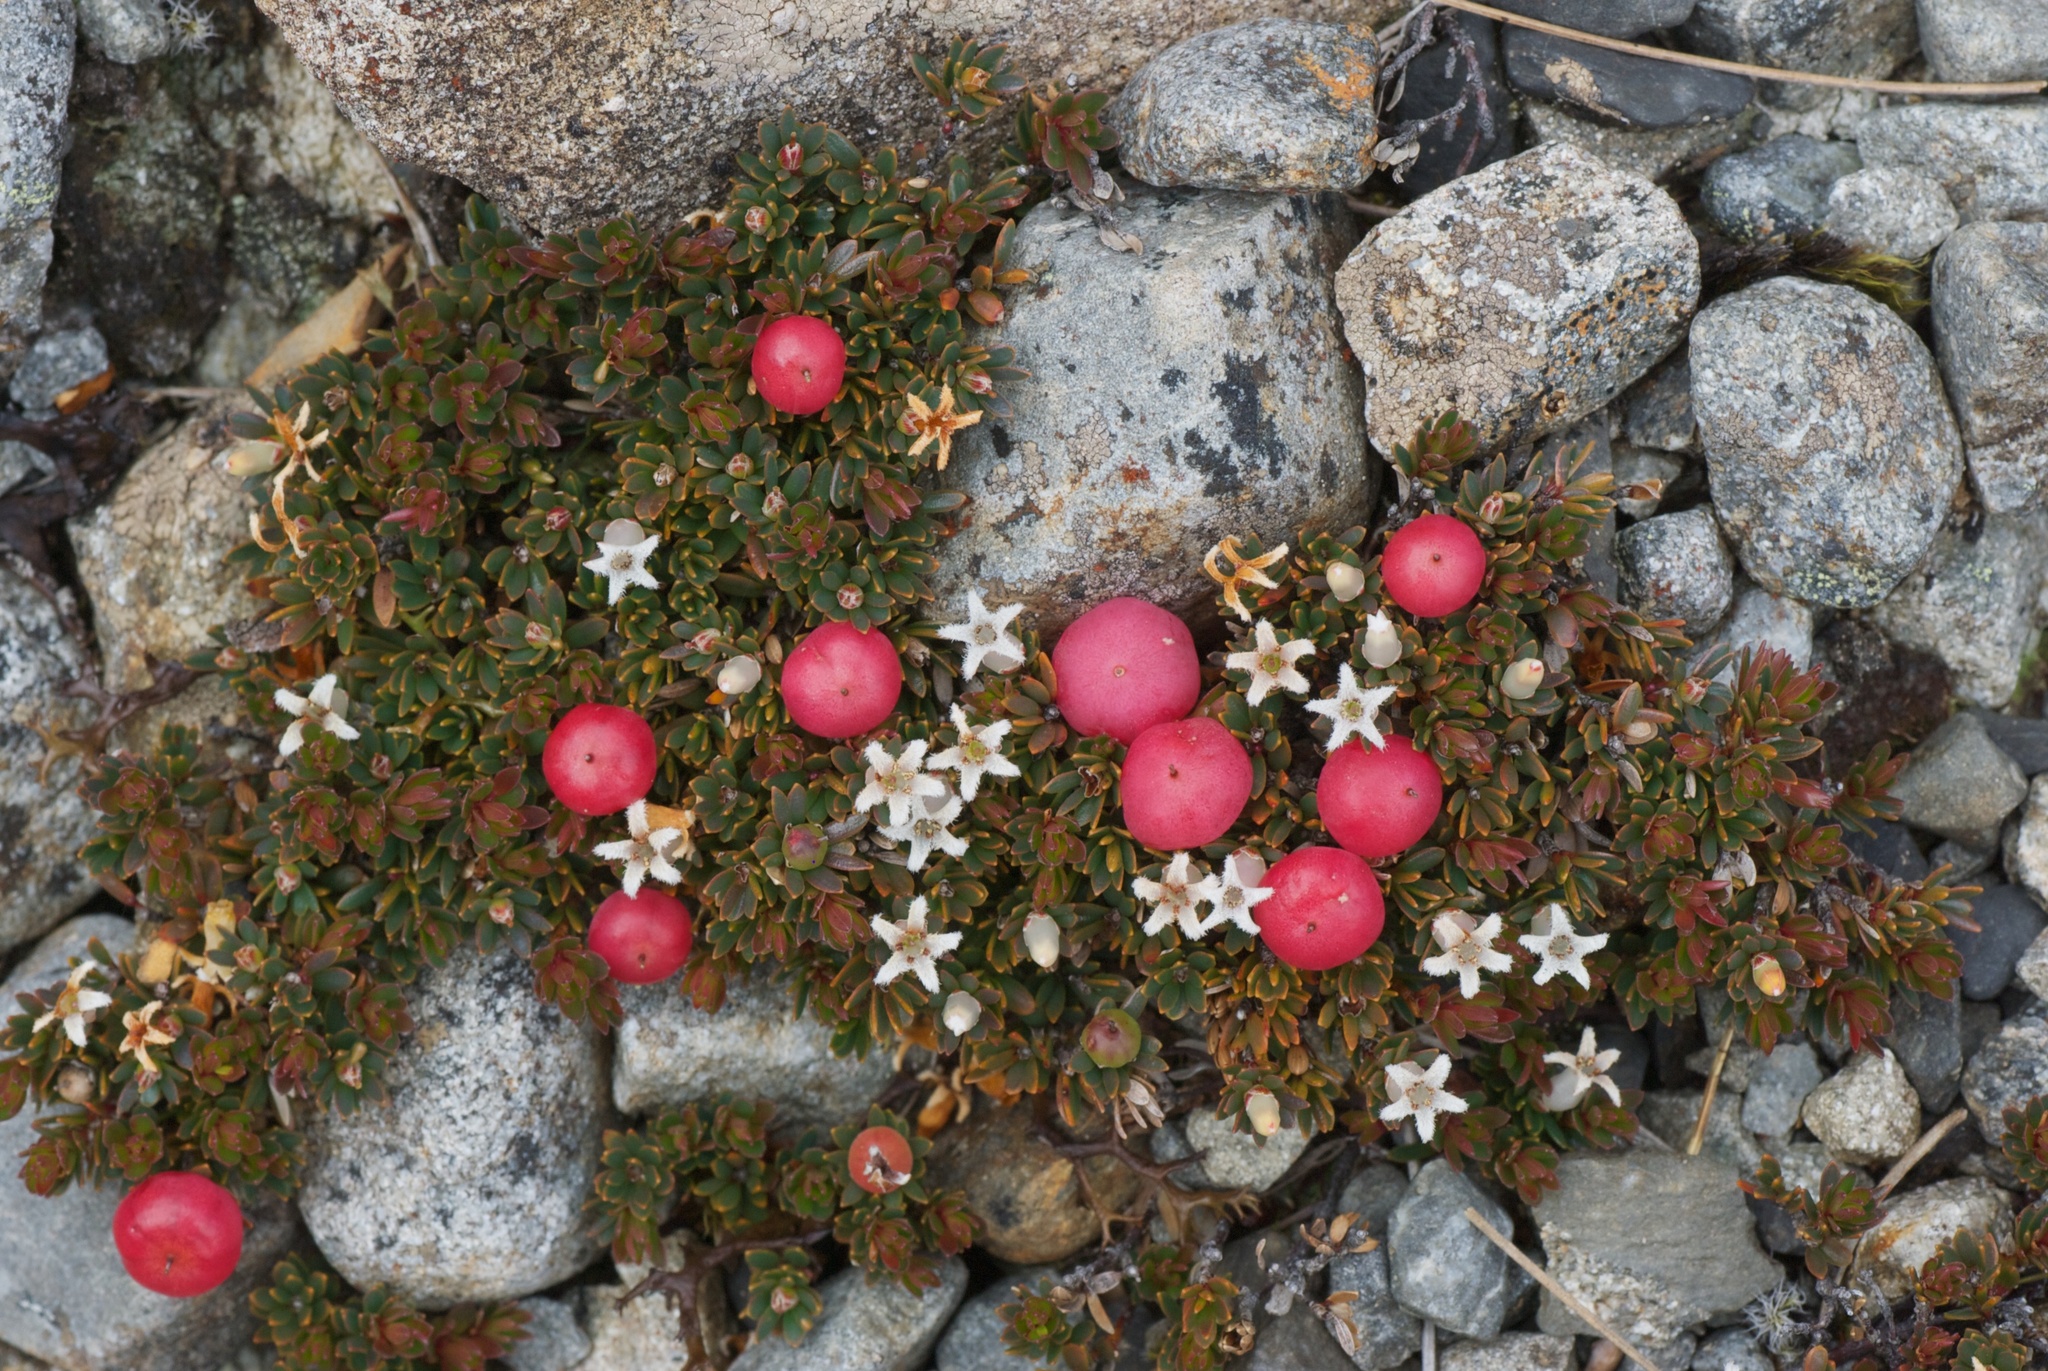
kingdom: Plantae
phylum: Tracheophyta
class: Magnoliopsida
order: Ericales
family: Ericaceae
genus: Pentachondra
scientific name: Pentachondra pumila
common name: Carpet-heath
